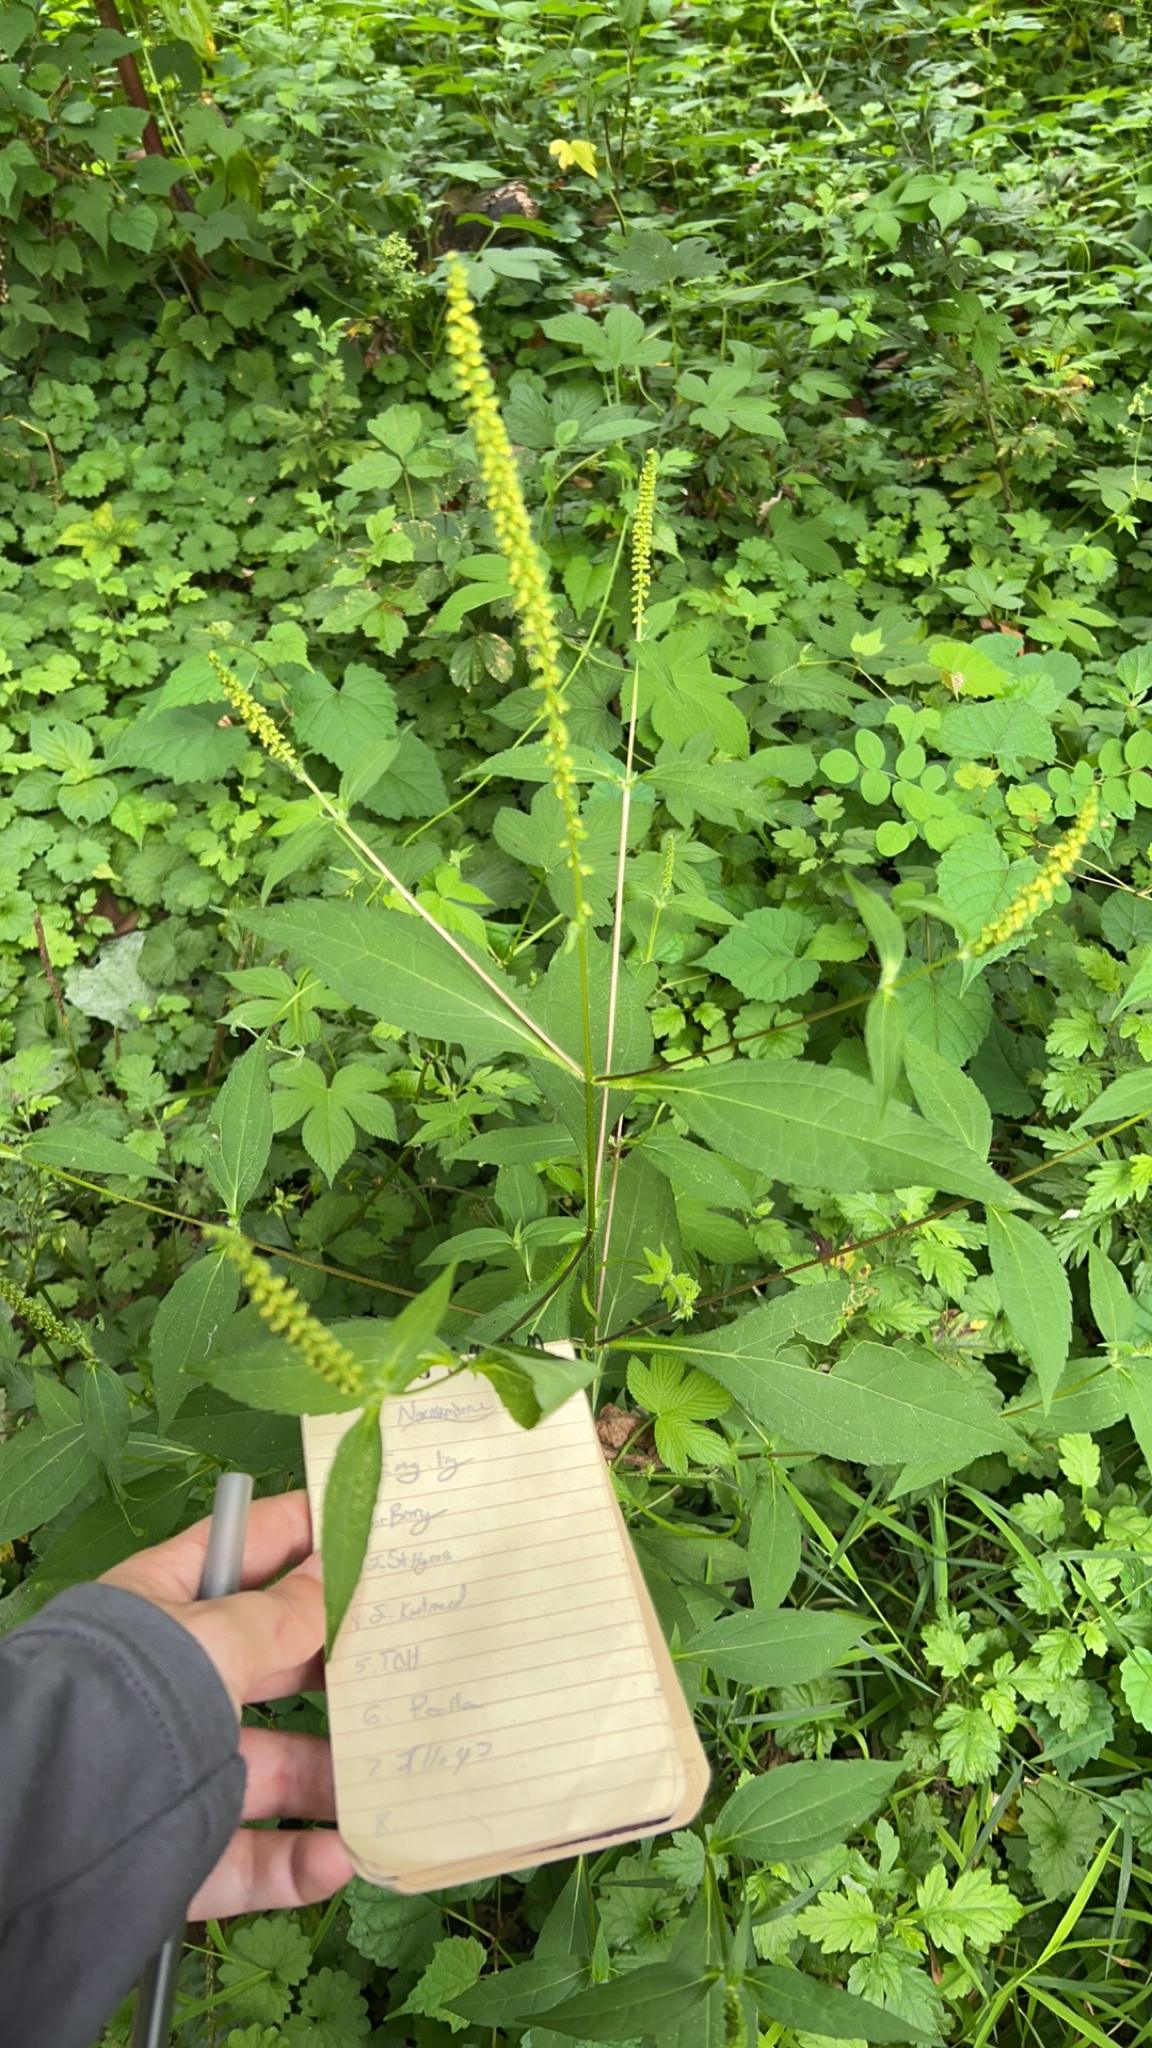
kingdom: Plantae
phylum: Tracheophyta
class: Magnoliopsida
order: Asterales
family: Asteraceae
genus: Ambrosia
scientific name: Ambrosia trifida
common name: Giant ragweed
